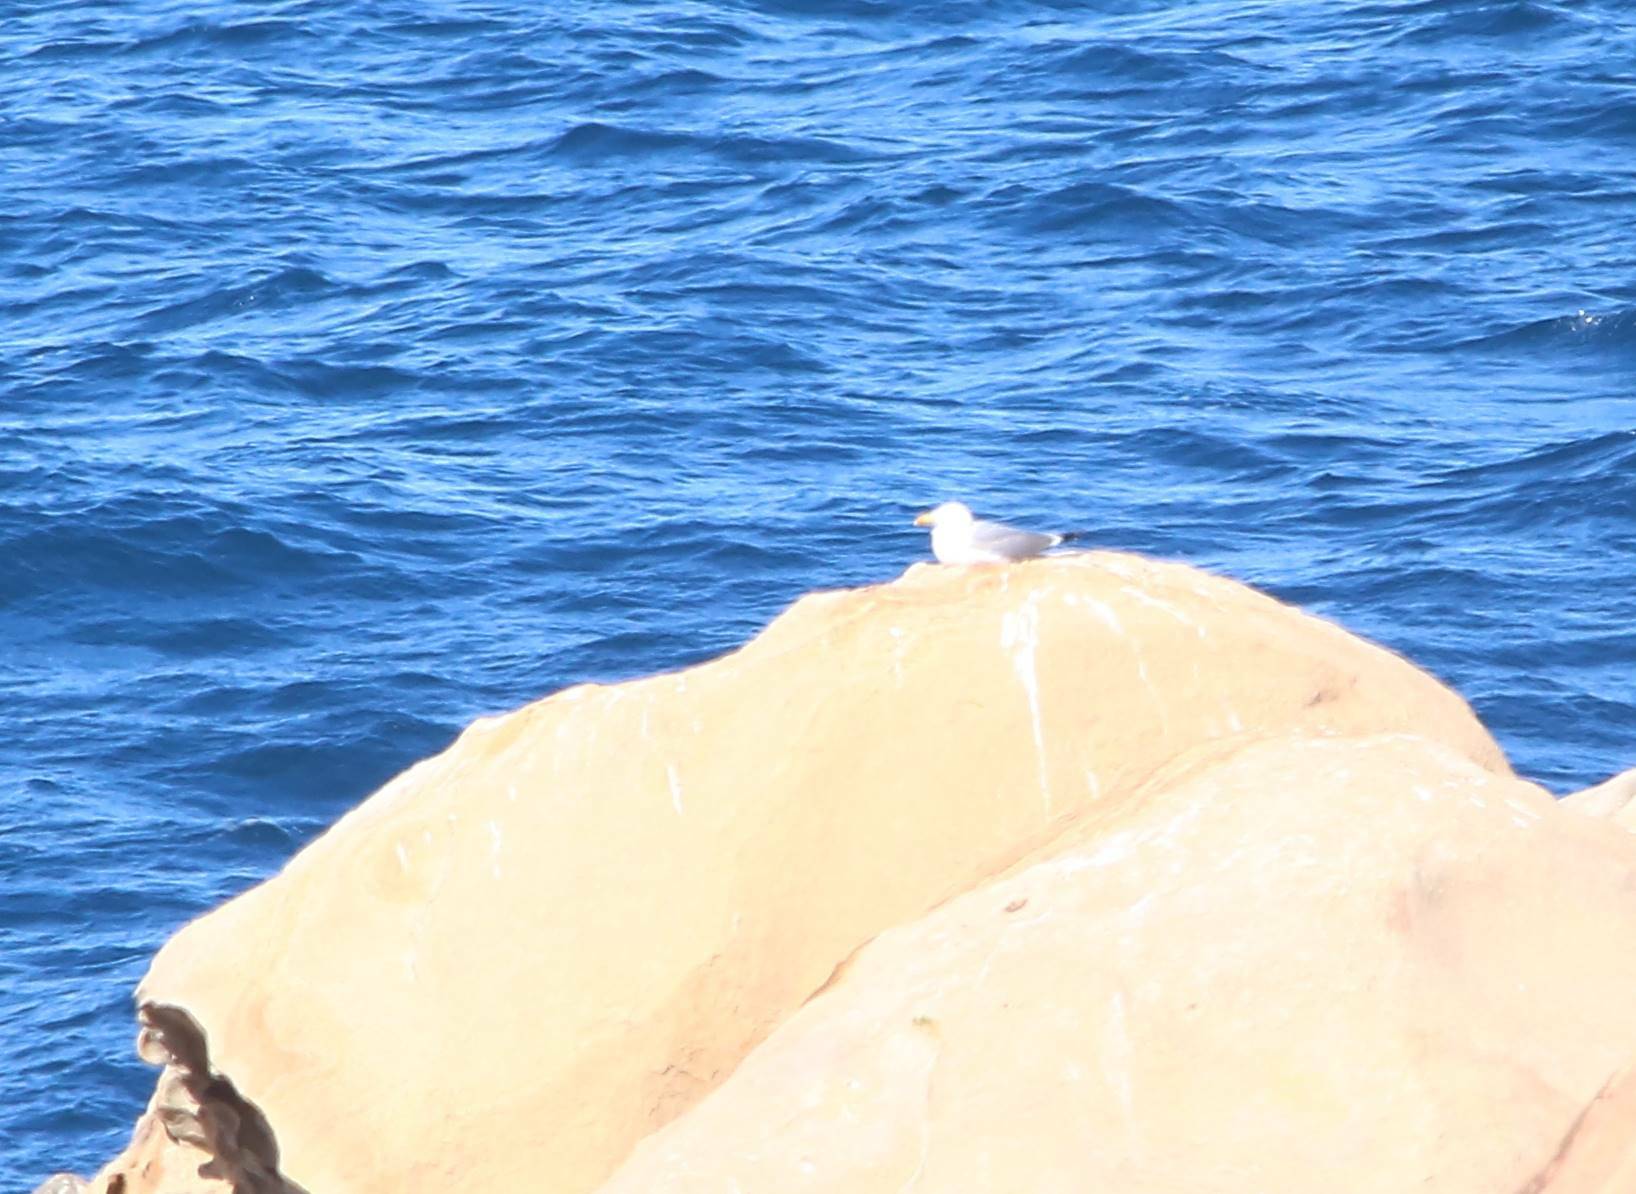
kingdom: Animalia
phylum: Chordata
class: Aves
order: Charadriiformes
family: Laridae
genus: Larus
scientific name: Larus michahellis
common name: Yellow-legged gull
